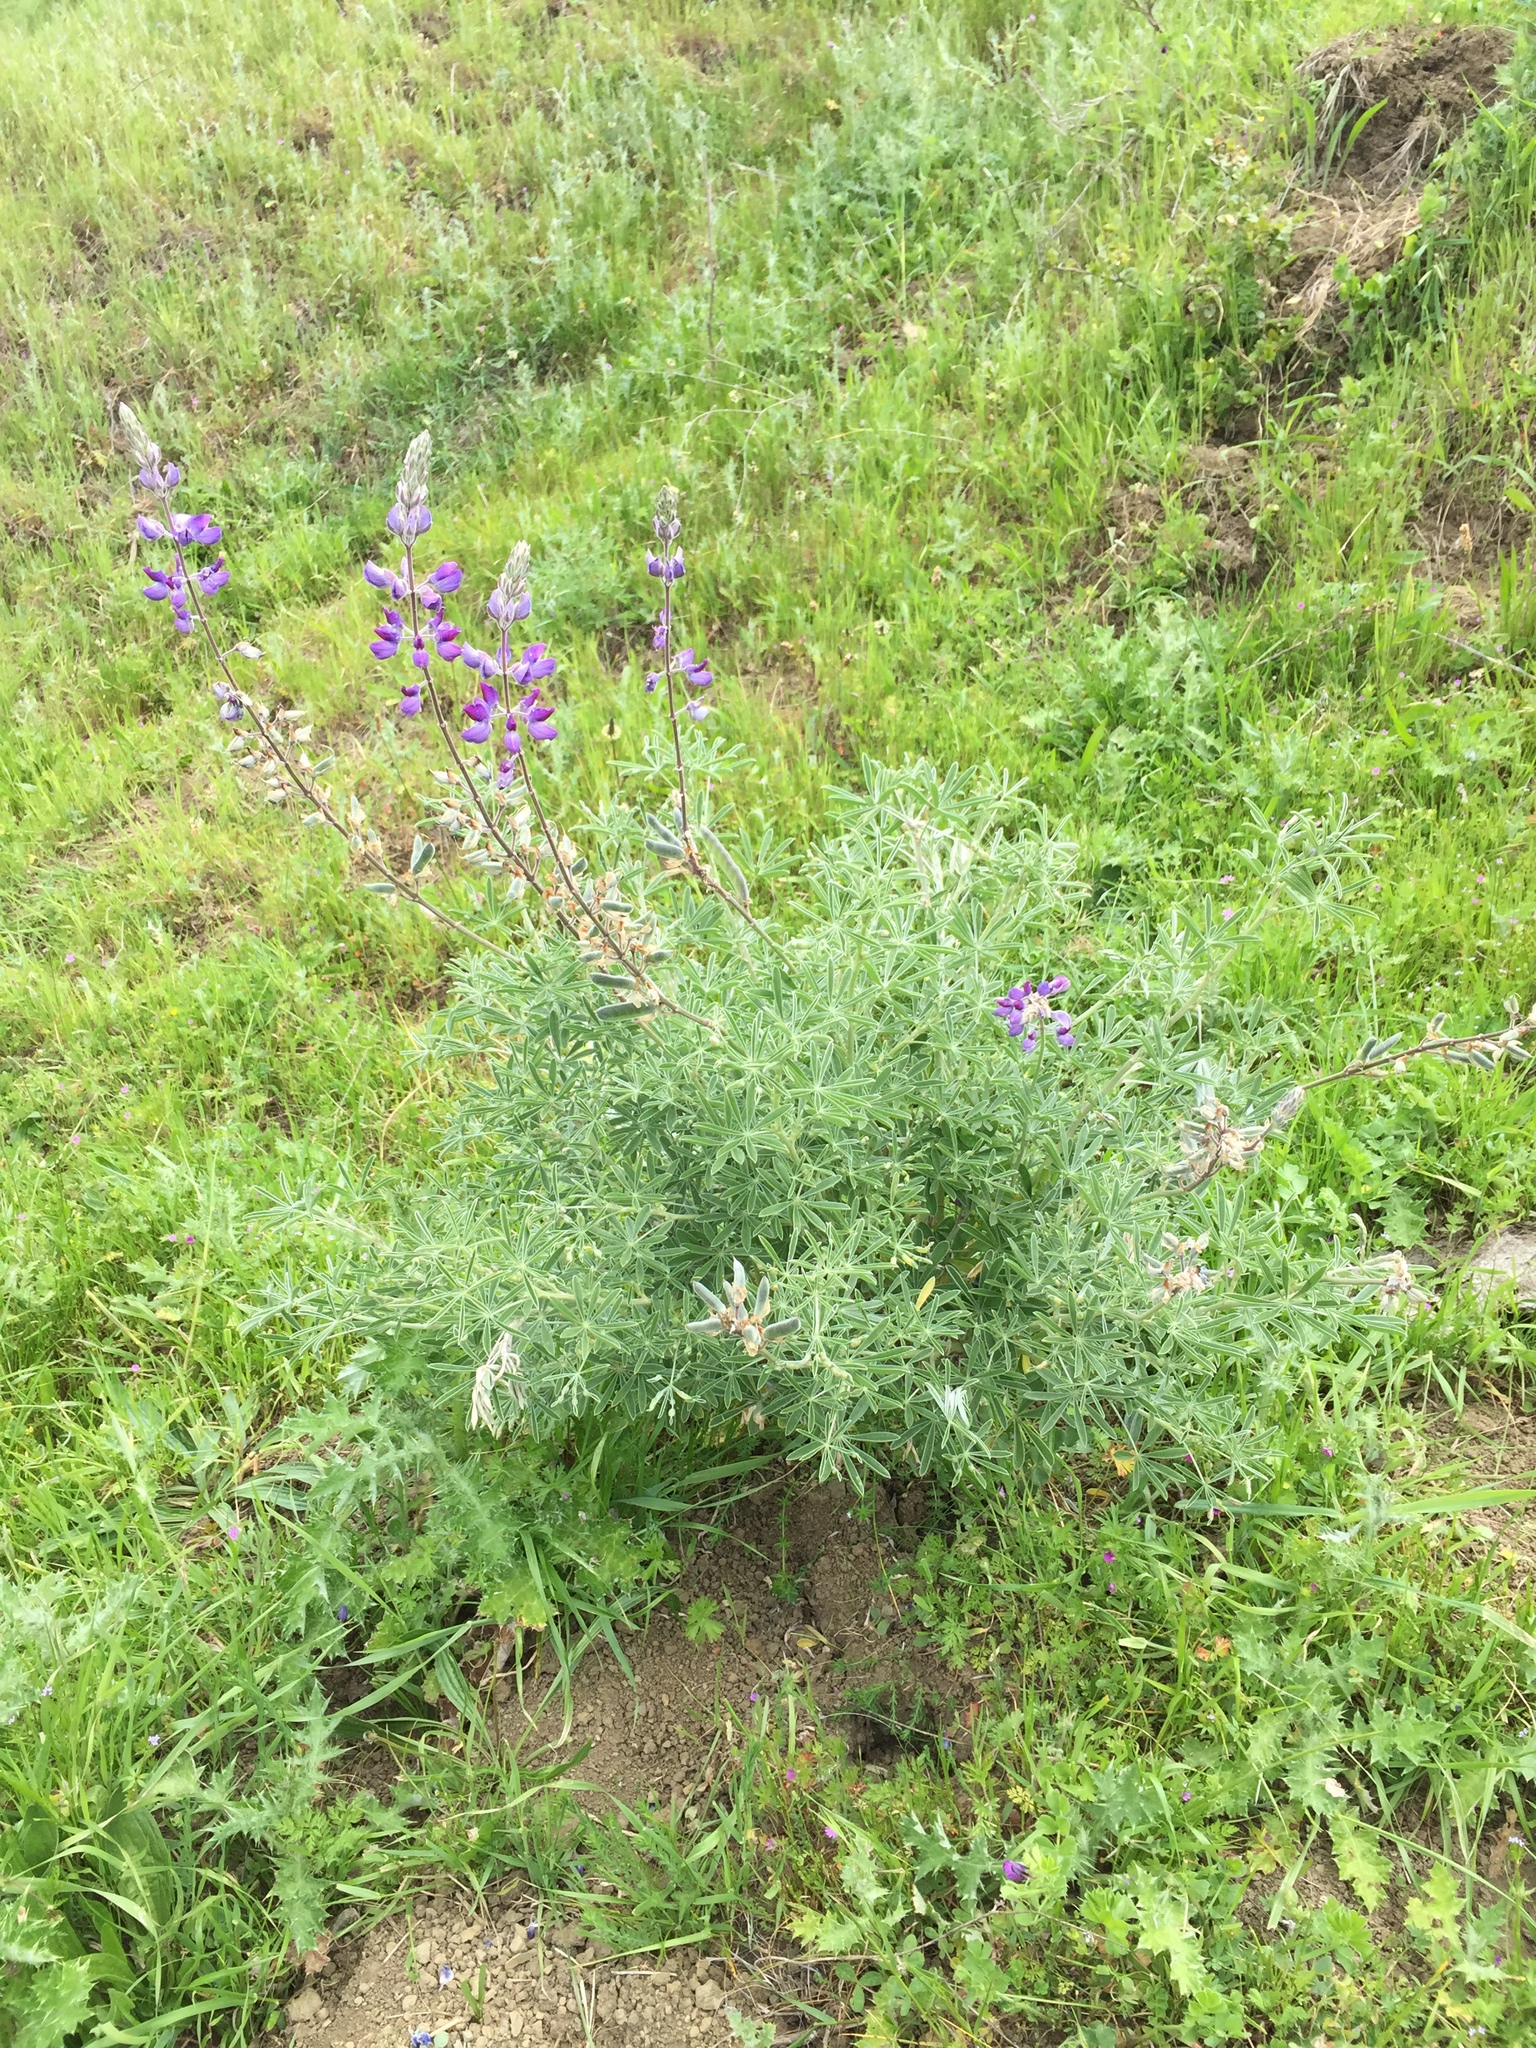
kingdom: Plantae
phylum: Tracheophyta
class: Magnoliopsida
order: Fabales
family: Fabaceae
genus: Lupinus
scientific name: Lupinus albifrons
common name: Foothill lupine
